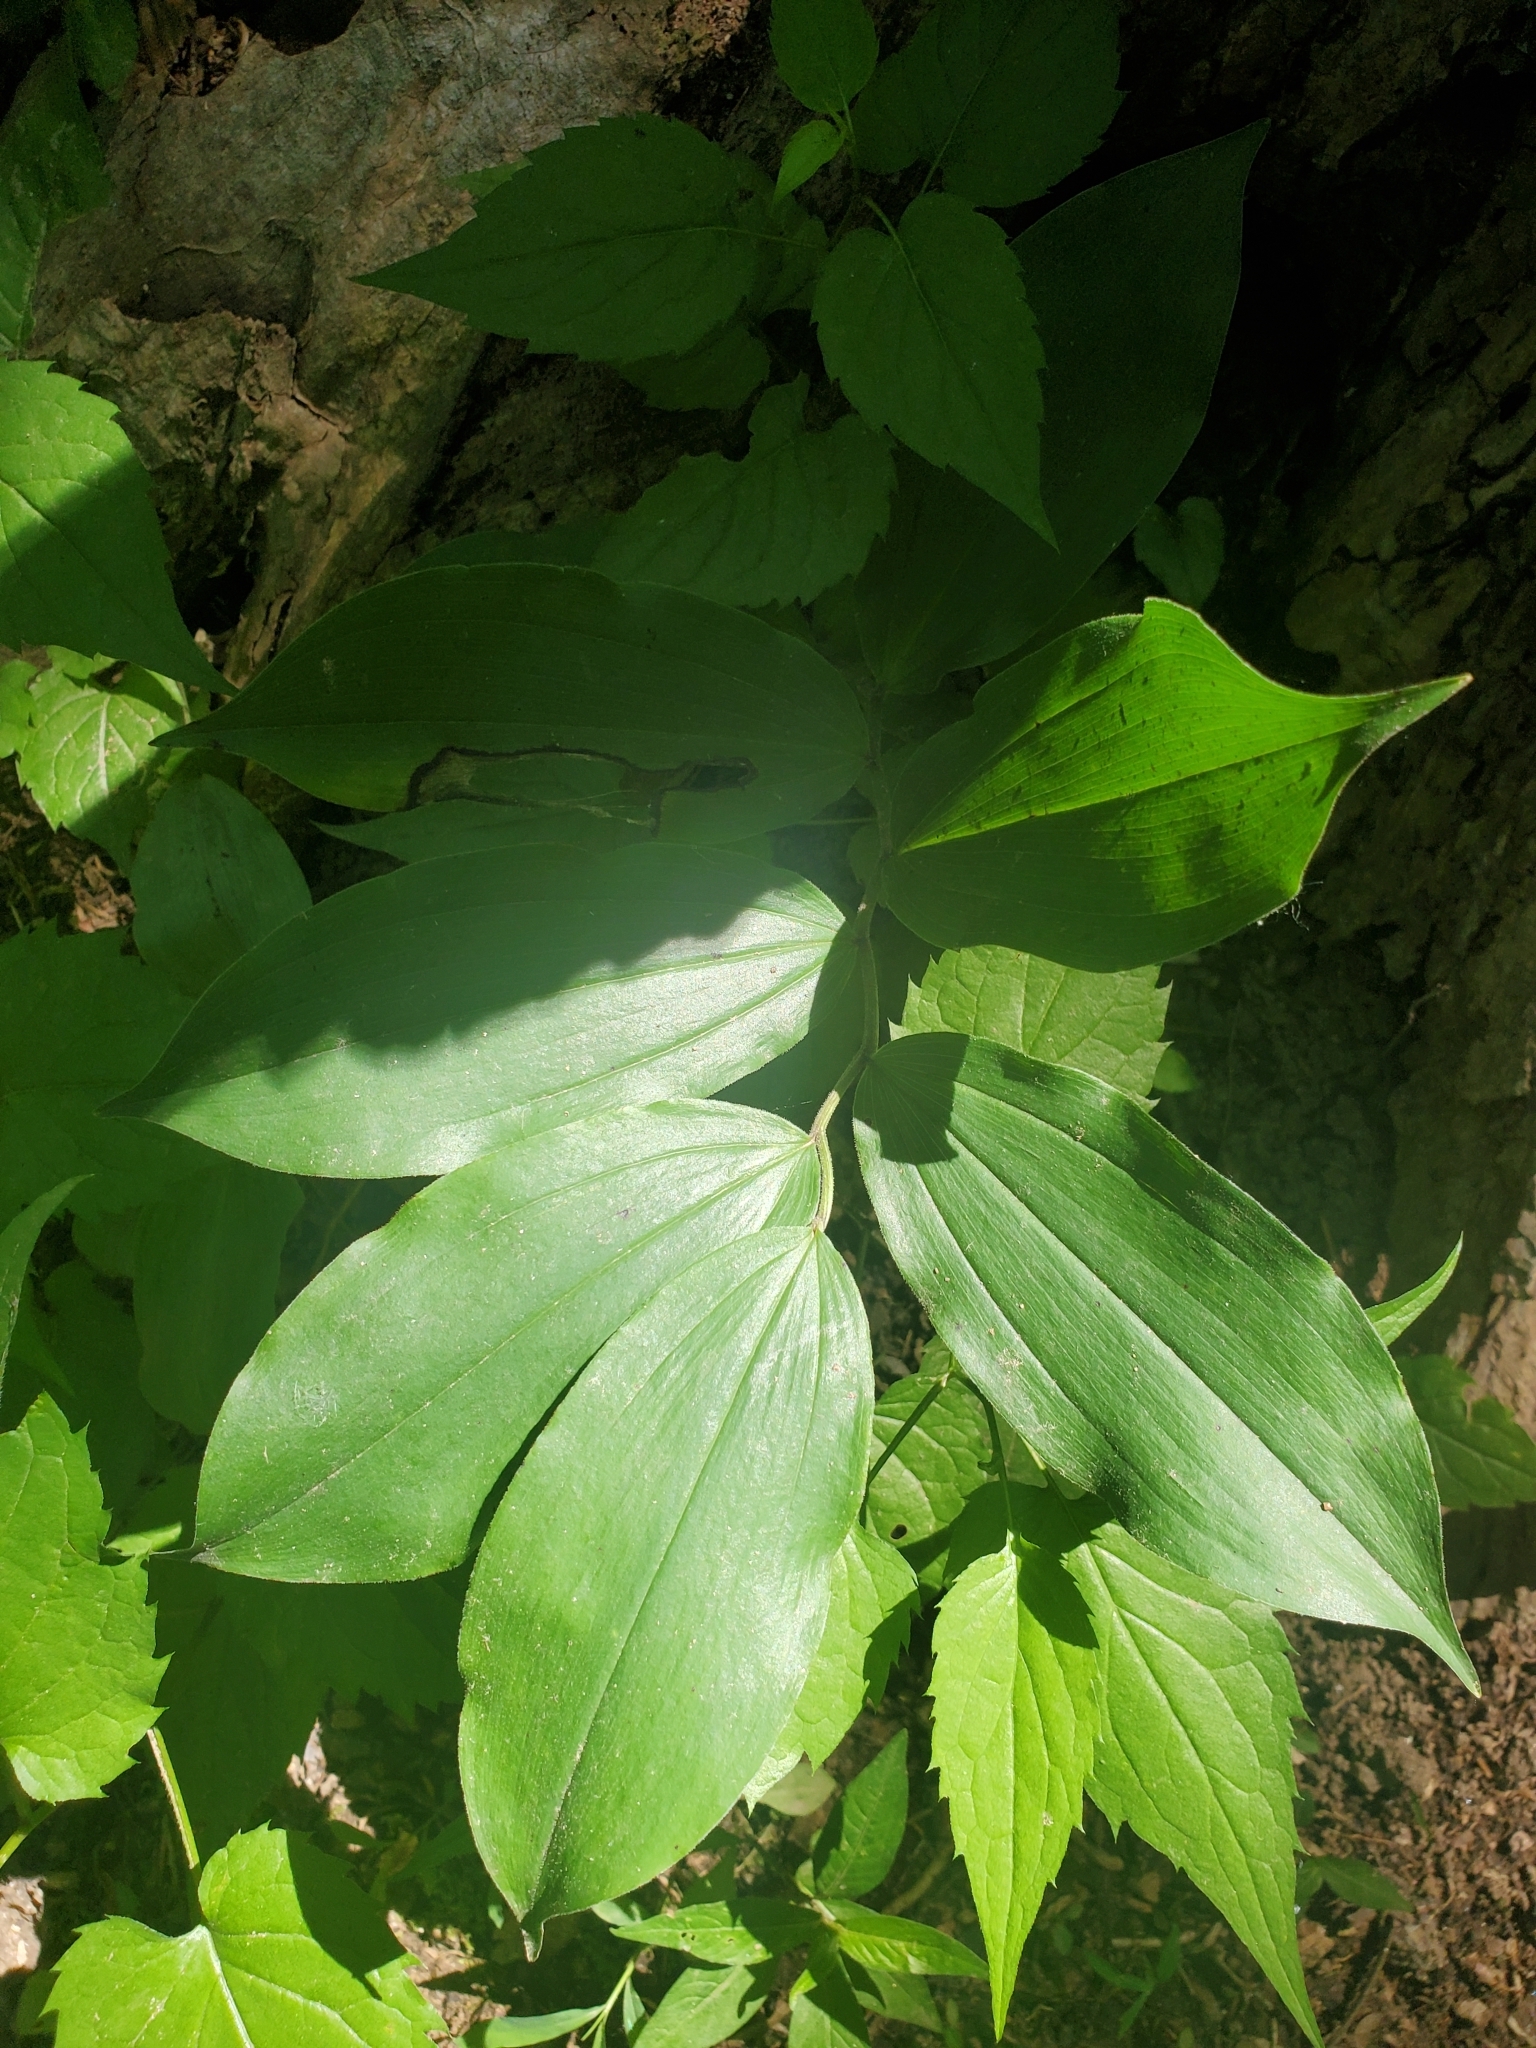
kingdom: Plantae
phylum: Tracheophyta
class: Liliopsida
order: Asparagales
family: Asparagaceae
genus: Maianthemum
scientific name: Maianthemum racemosum
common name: False spikenard
